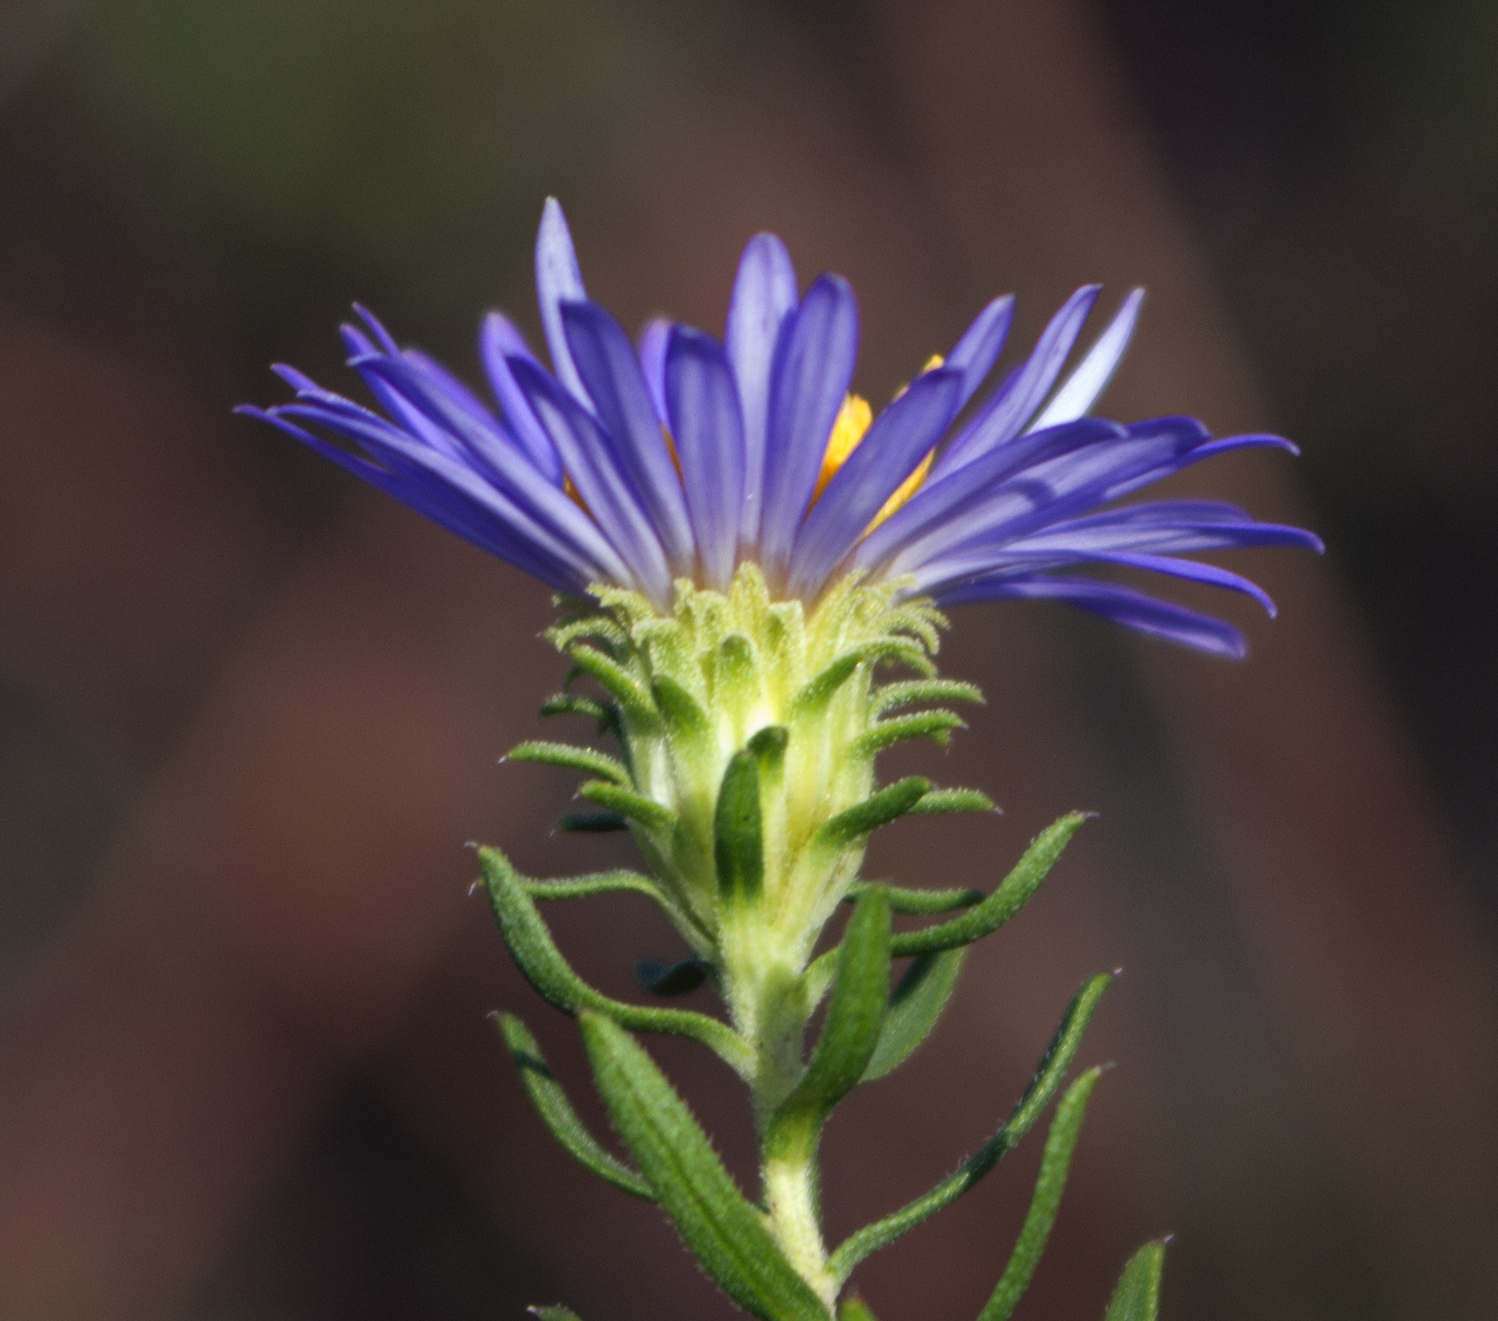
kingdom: Plantae
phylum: Tracheophyta
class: Magnoliopsida
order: Asterales
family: Asteraceae
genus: Symphyotrichum
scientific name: Symphyotrichum oblongifolium
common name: Aromatic aster
